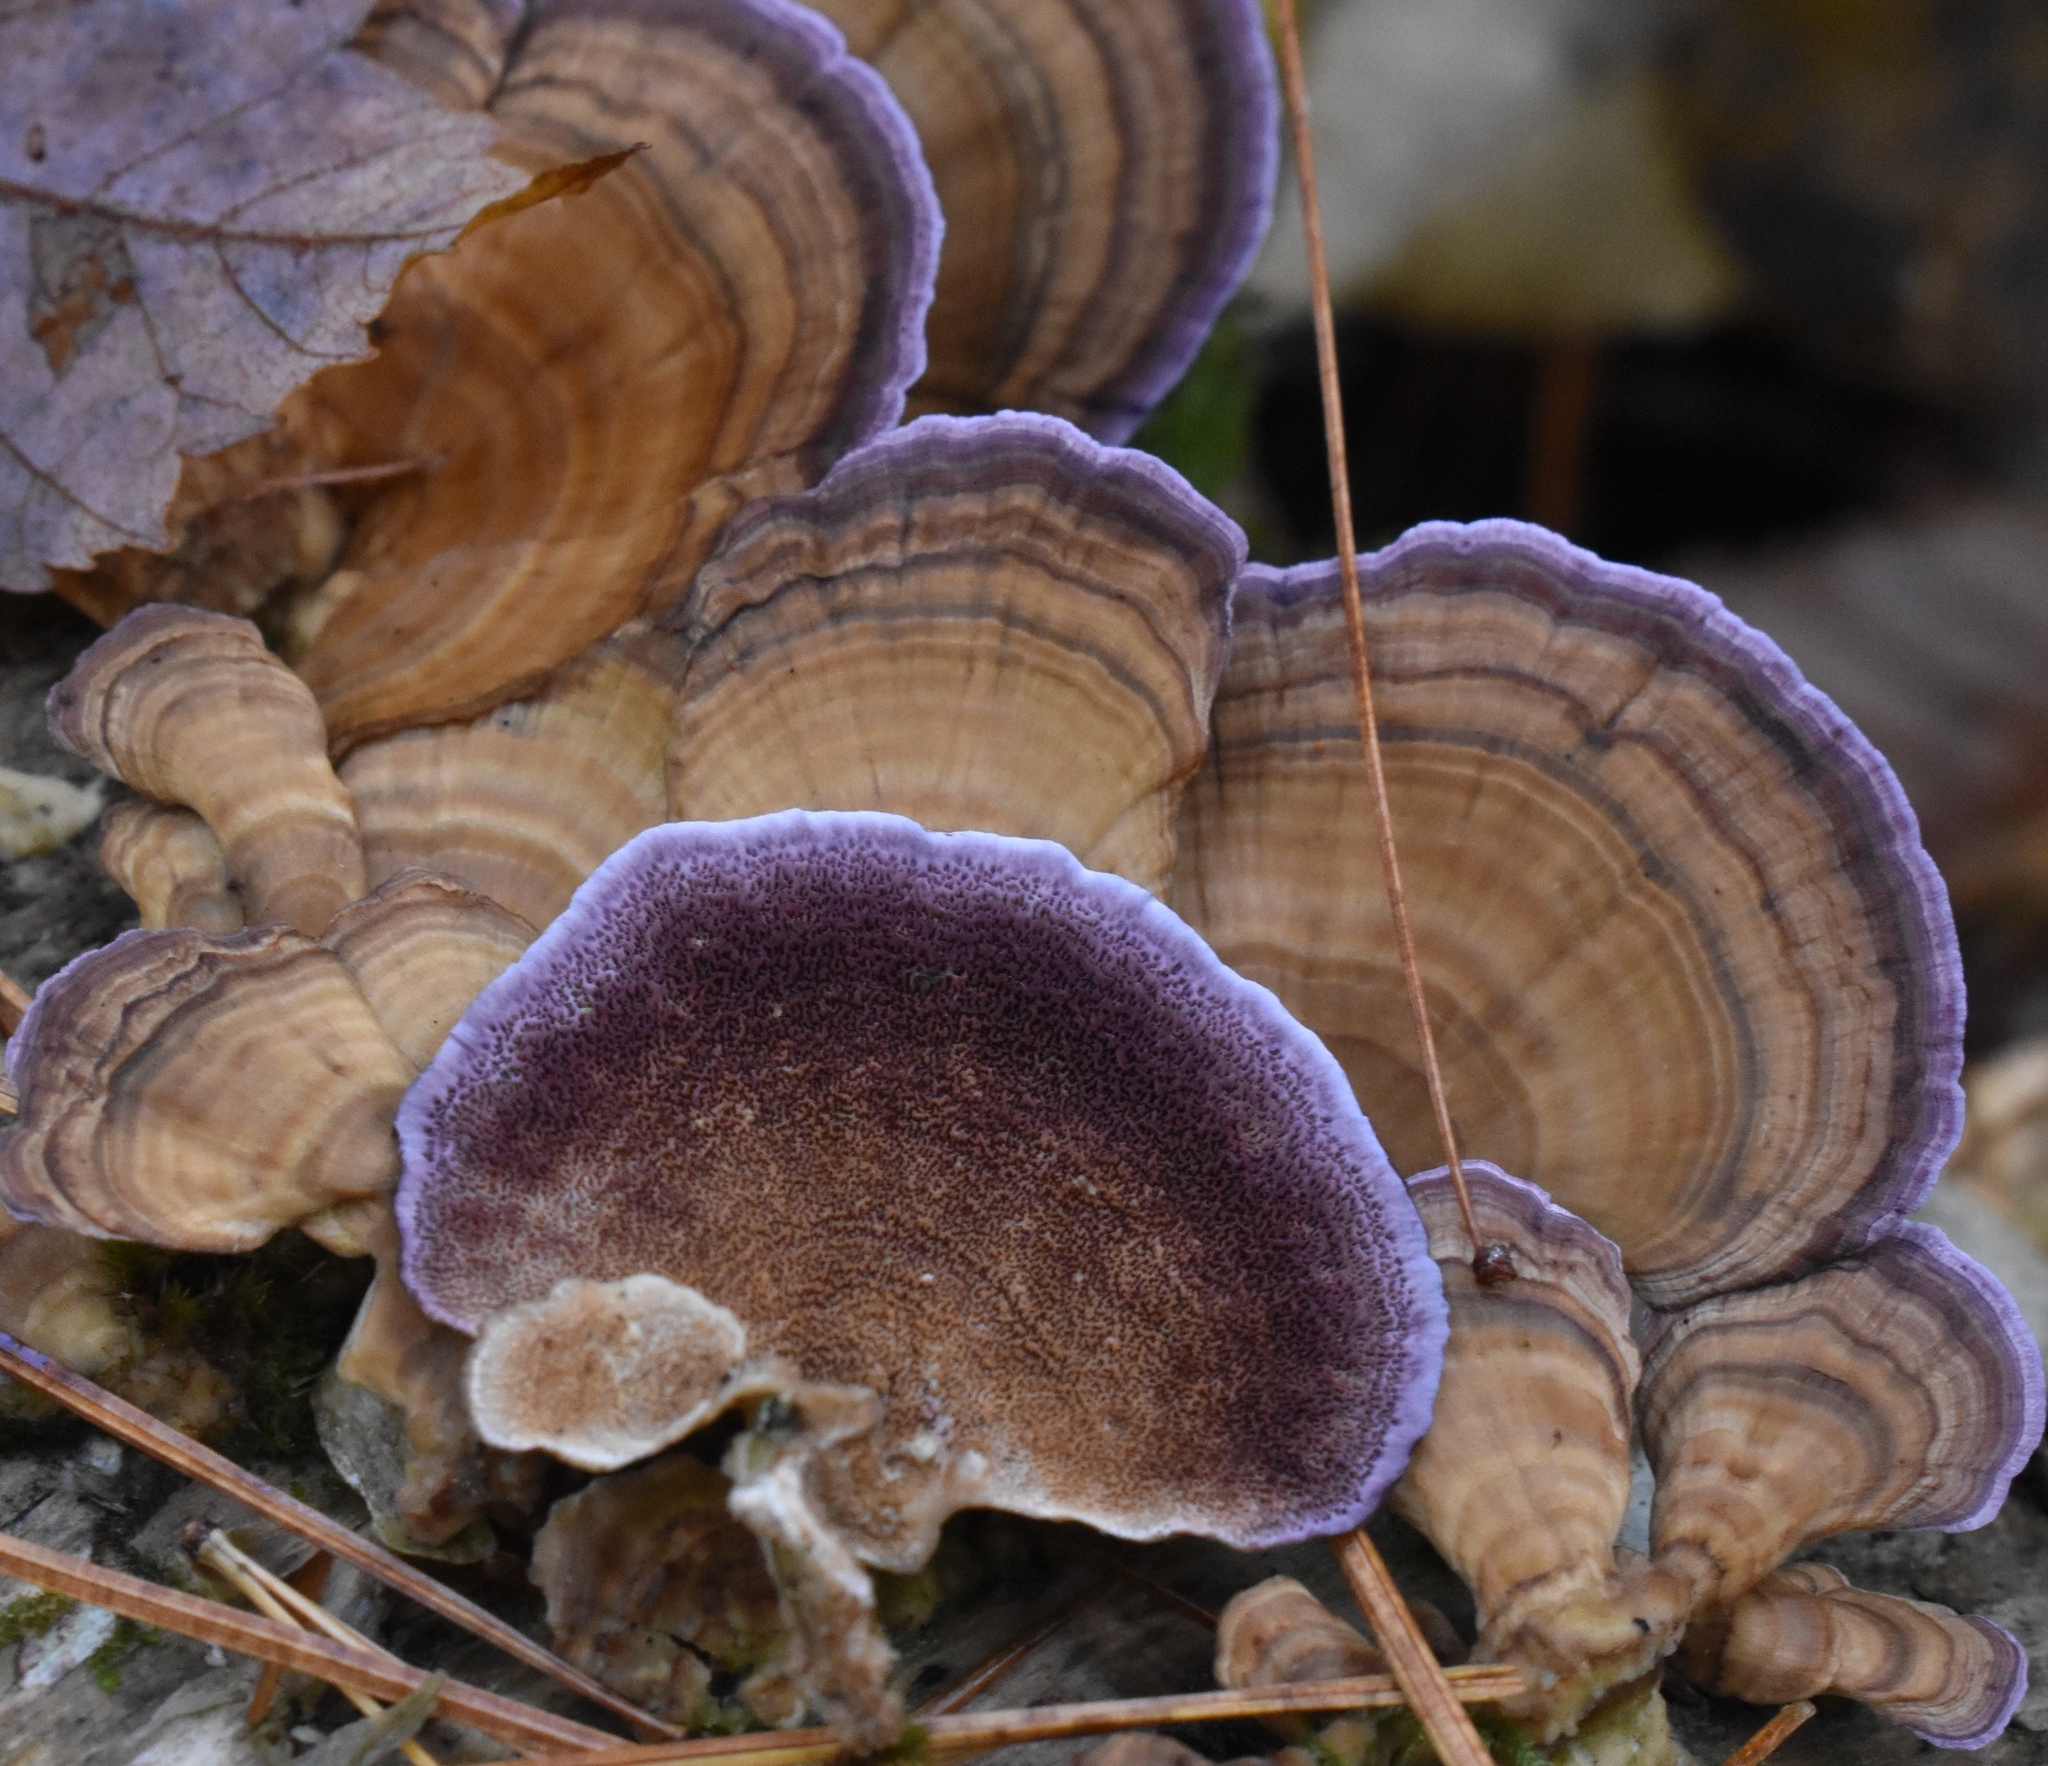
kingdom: Fungi
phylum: Basidiomycota
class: Agaricomycetes
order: Hymenochaetales
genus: Trichaptum
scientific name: Trichaptum biforme
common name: Violet-toothed polypore
